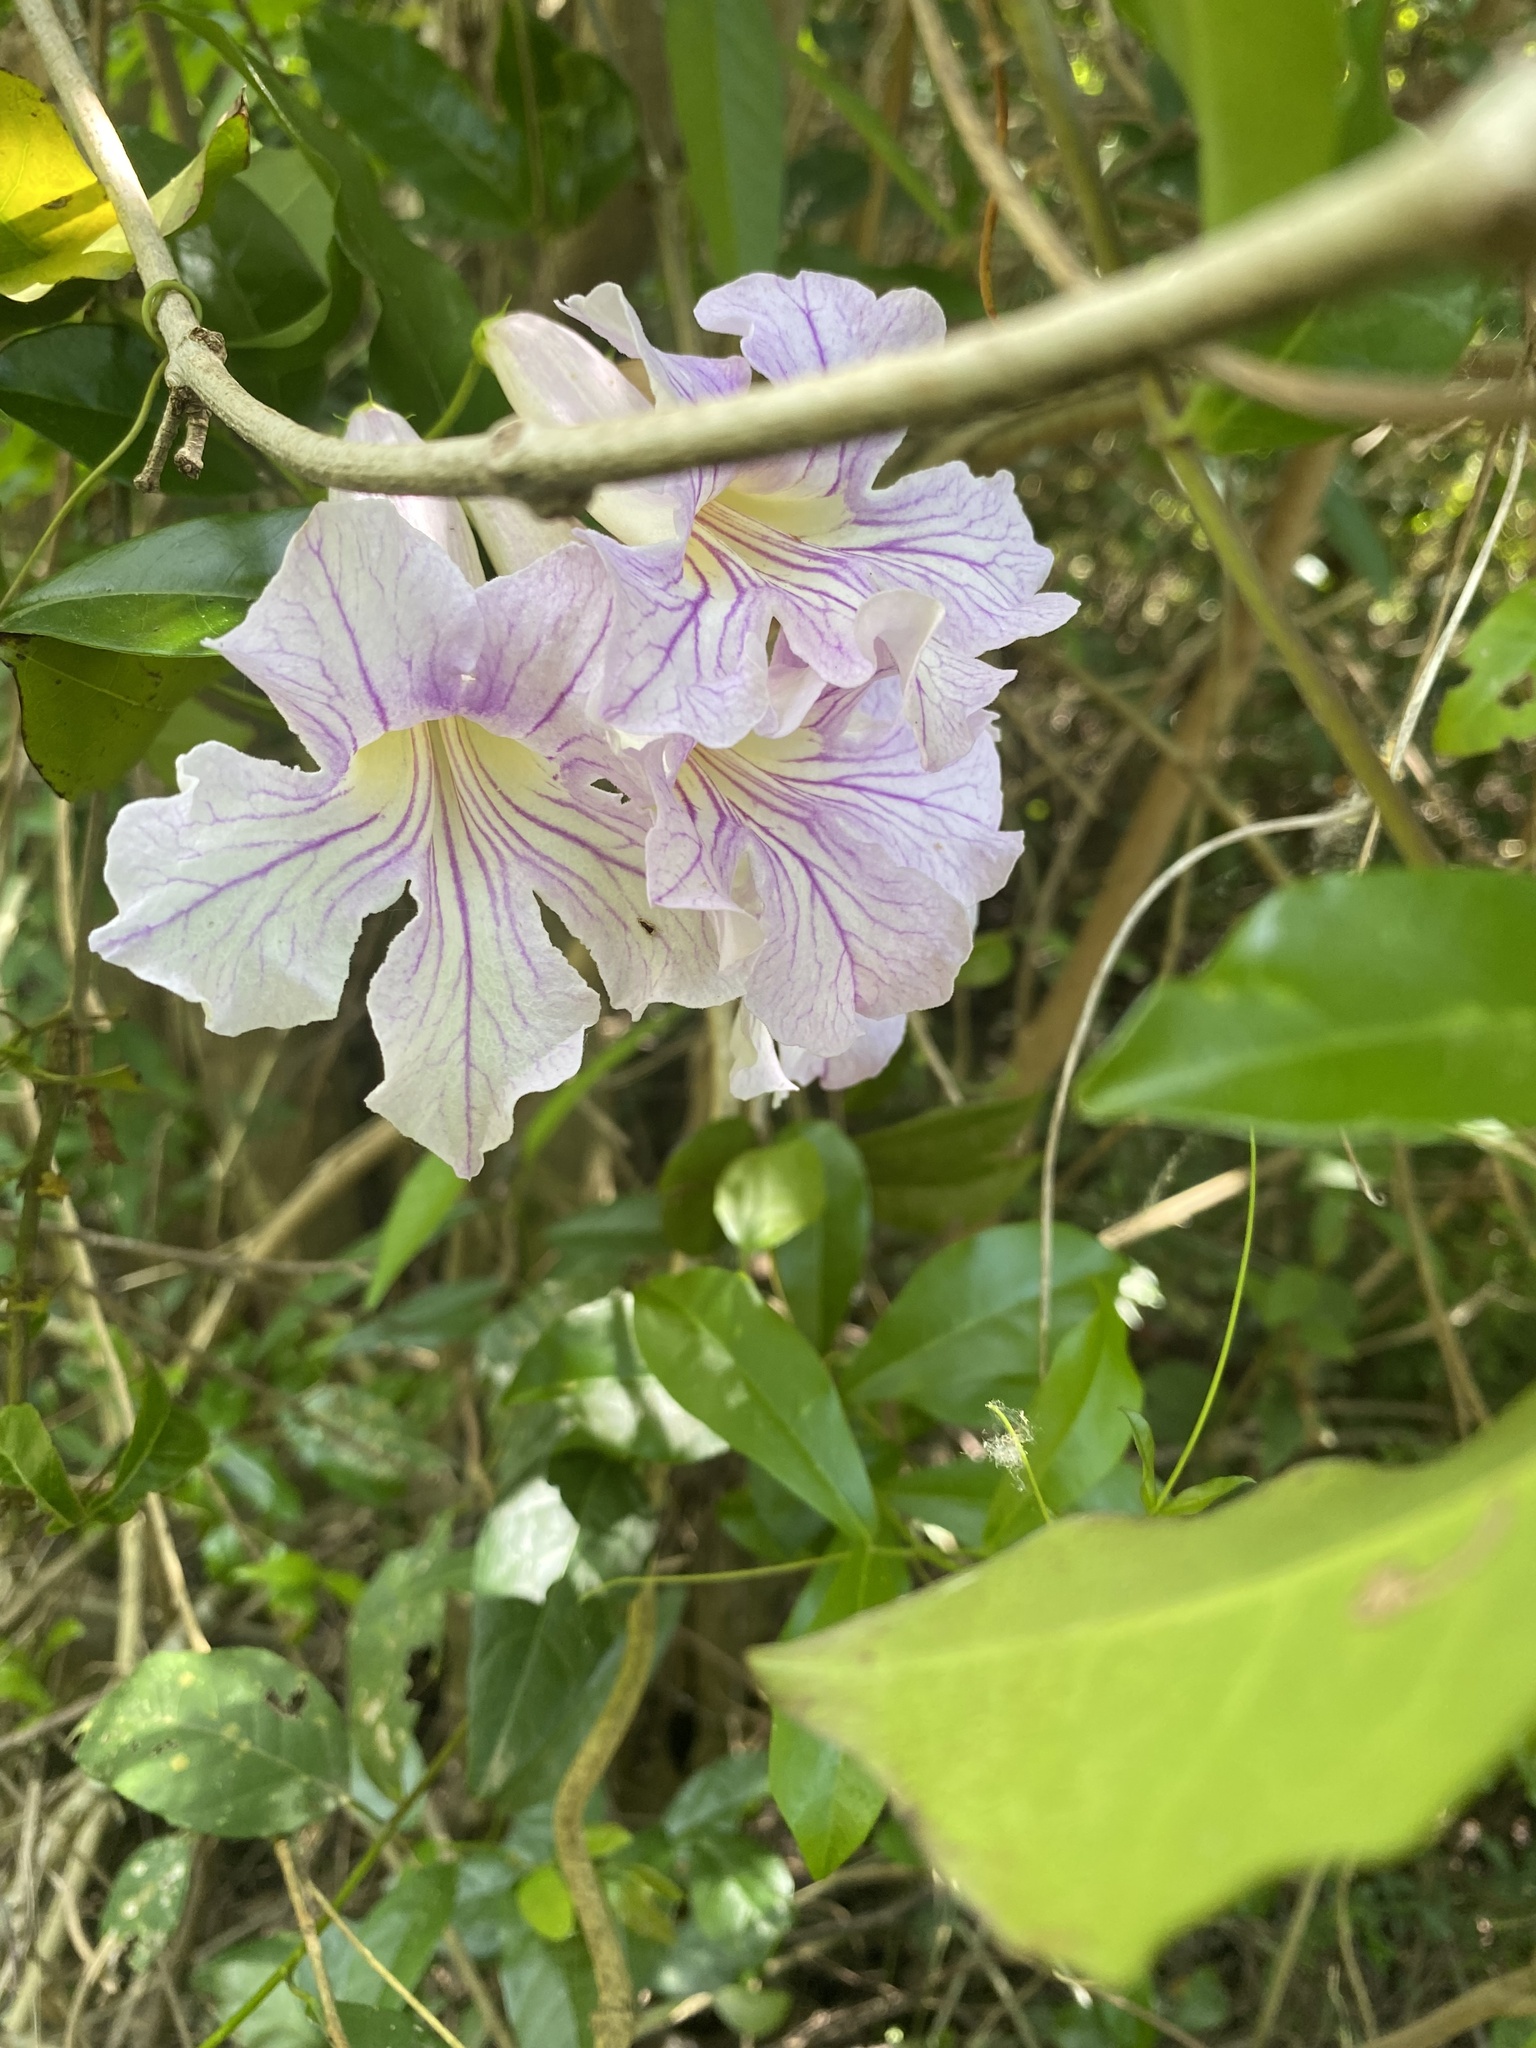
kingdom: Plantae
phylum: Tracheophyta
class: Magnoliopsida
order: Lamiales
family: Bignoniaceae
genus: Bignonia
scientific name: Bignonia callistegioides
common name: Argentine trumpetvine
